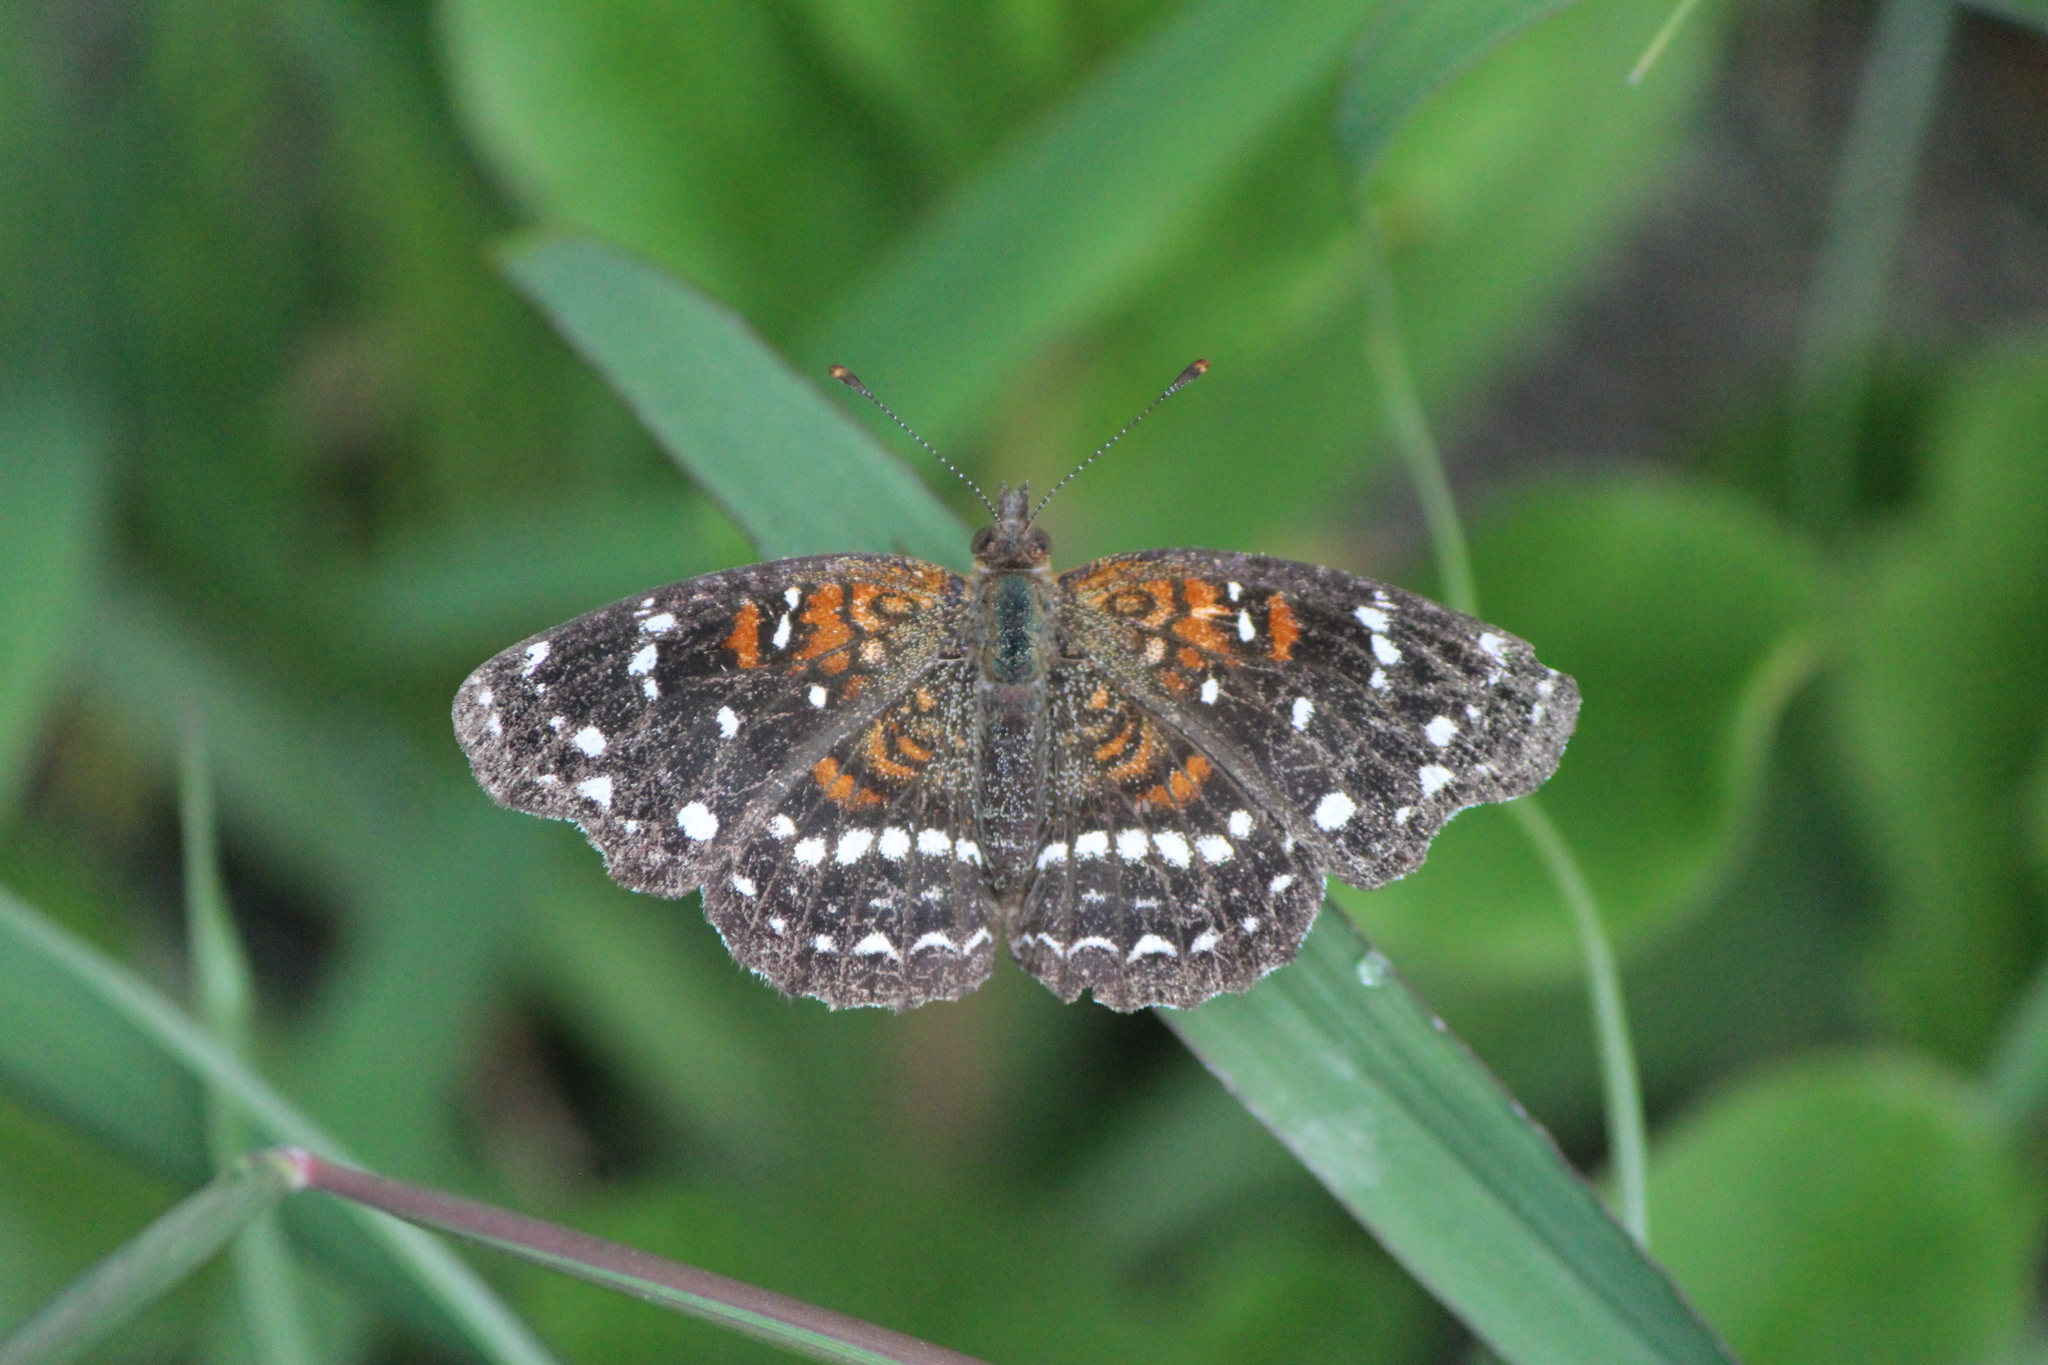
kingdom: Animalia
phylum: Arthropoda
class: Insecta
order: Lepidoptera
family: Nymphalidae
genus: Anthanassa
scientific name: Anthanassa texana
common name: Texan crescent
